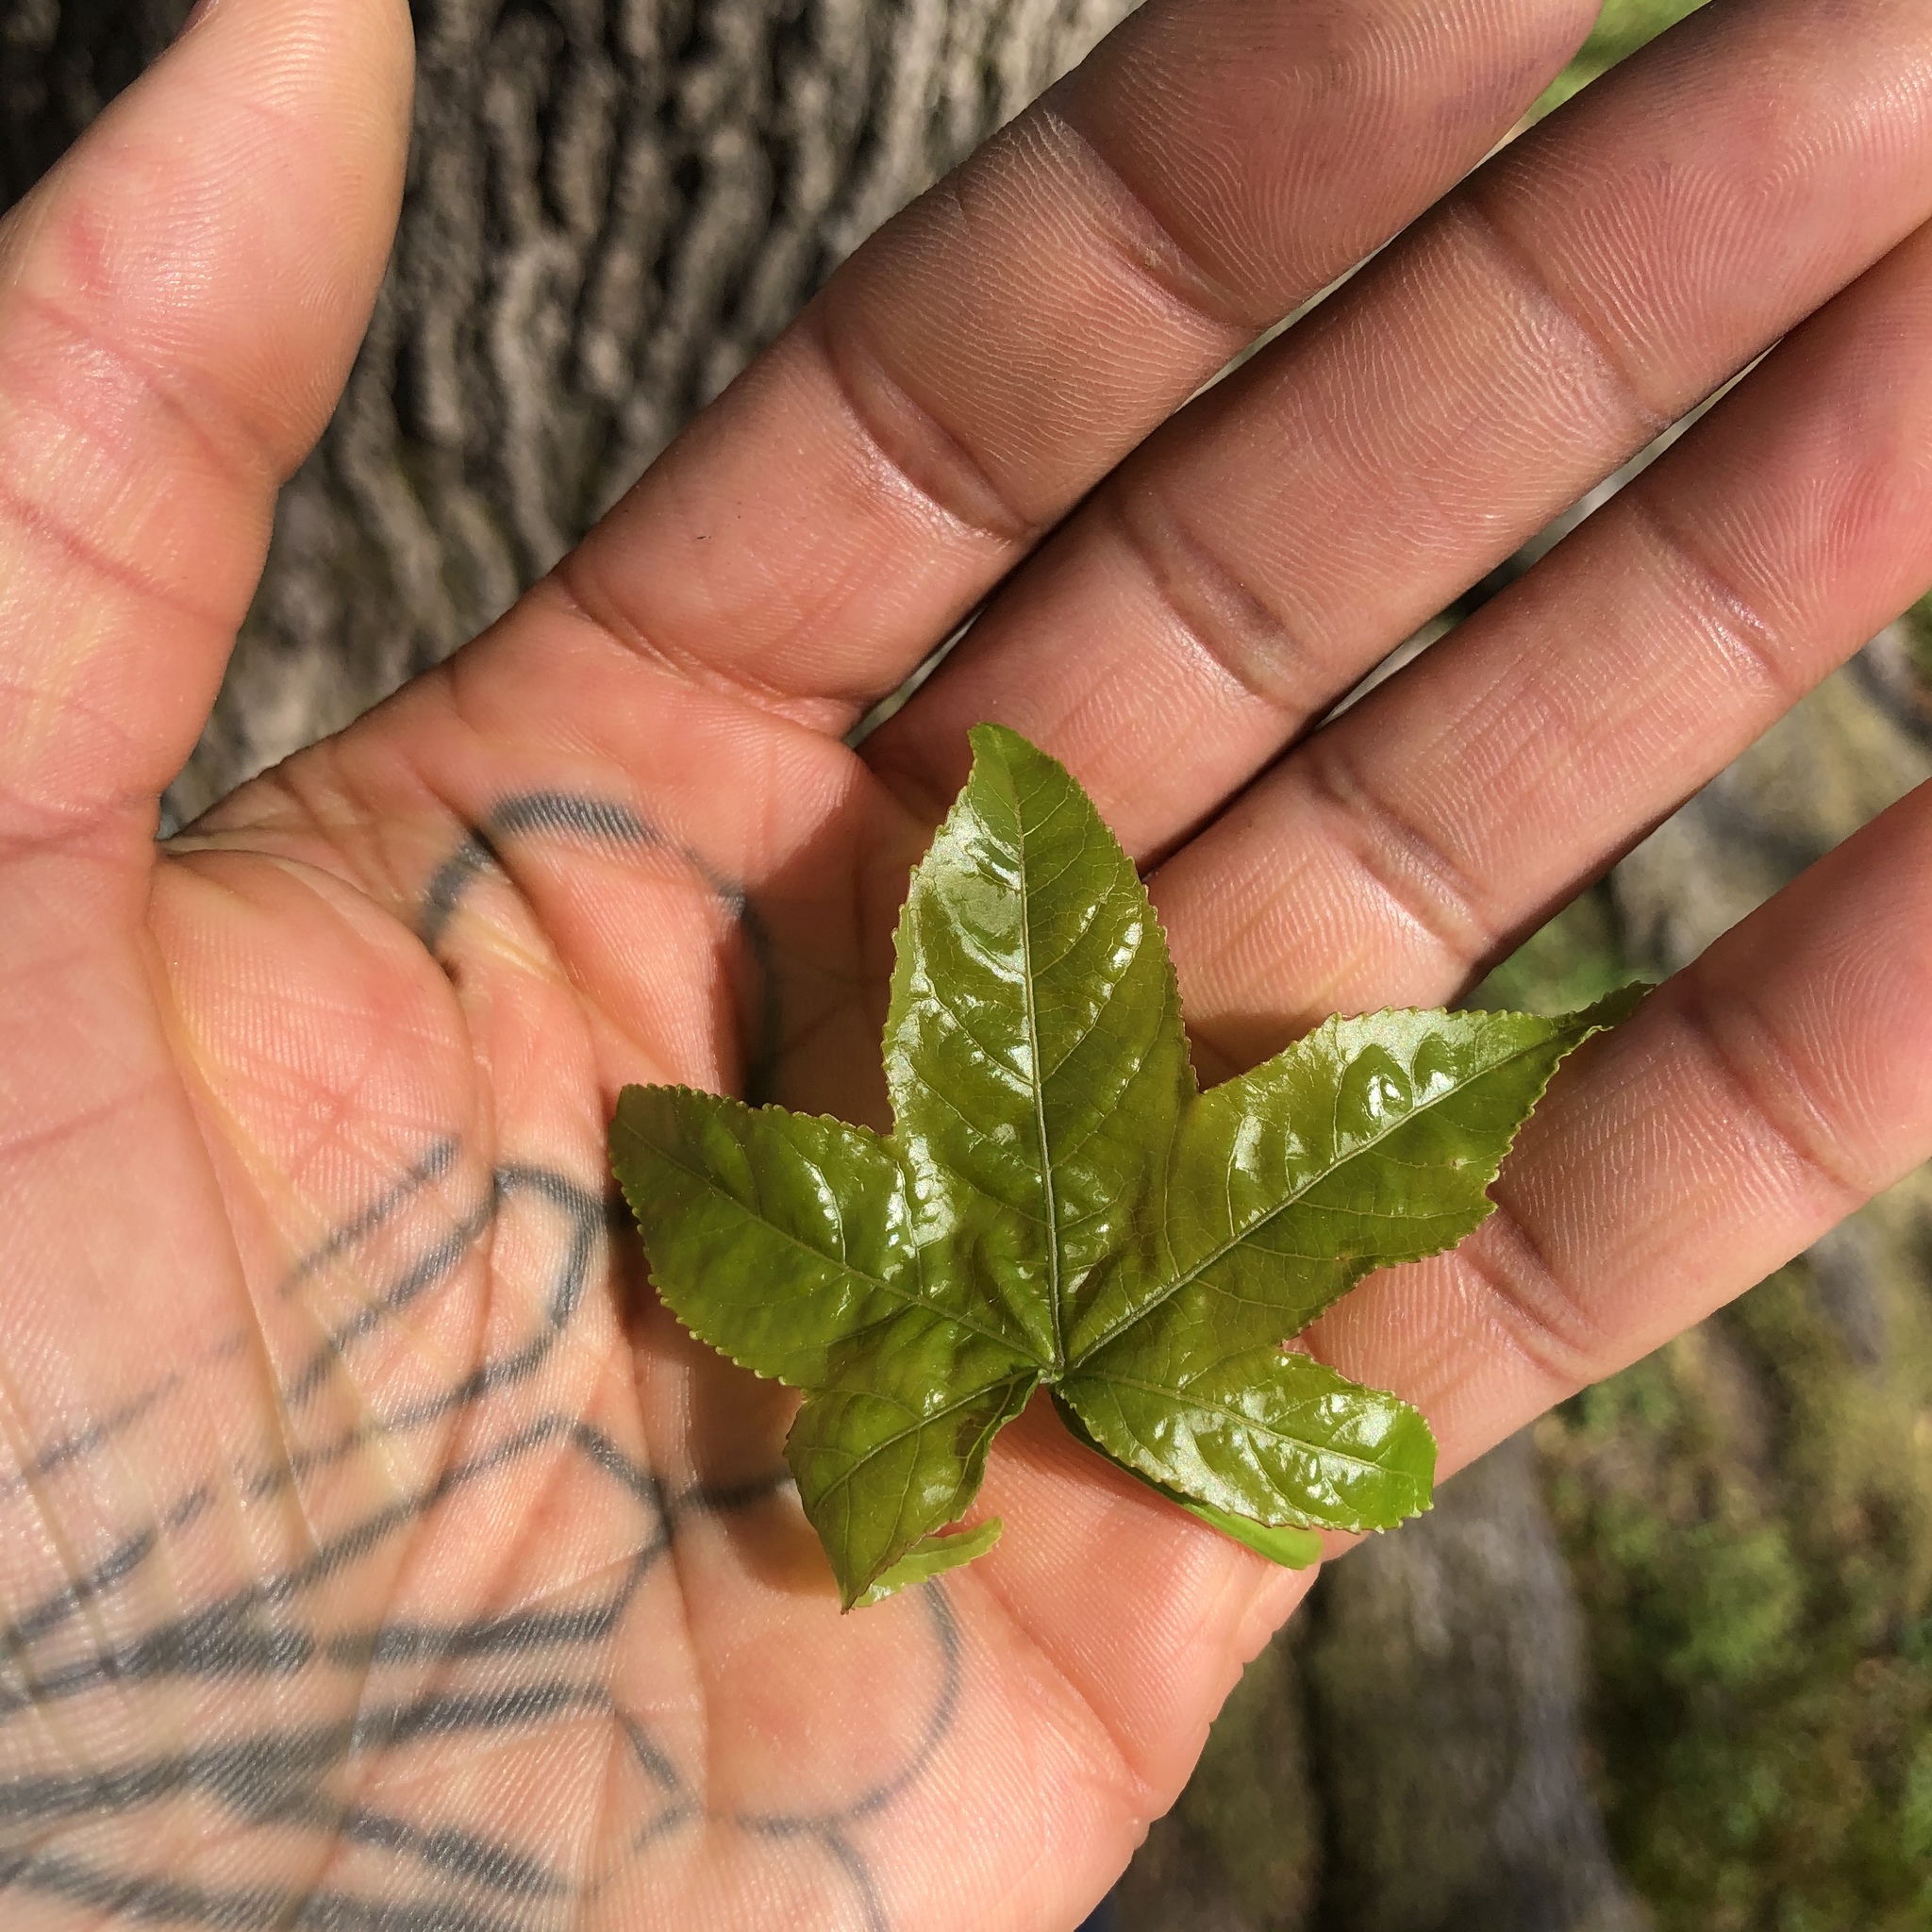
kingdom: Plantae
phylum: Tracheophyta
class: Magnoliopsida
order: Saxifragales
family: Altingiaceae
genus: Liquidambar
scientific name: Liquidambar styraciflua
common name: Sweet gum
